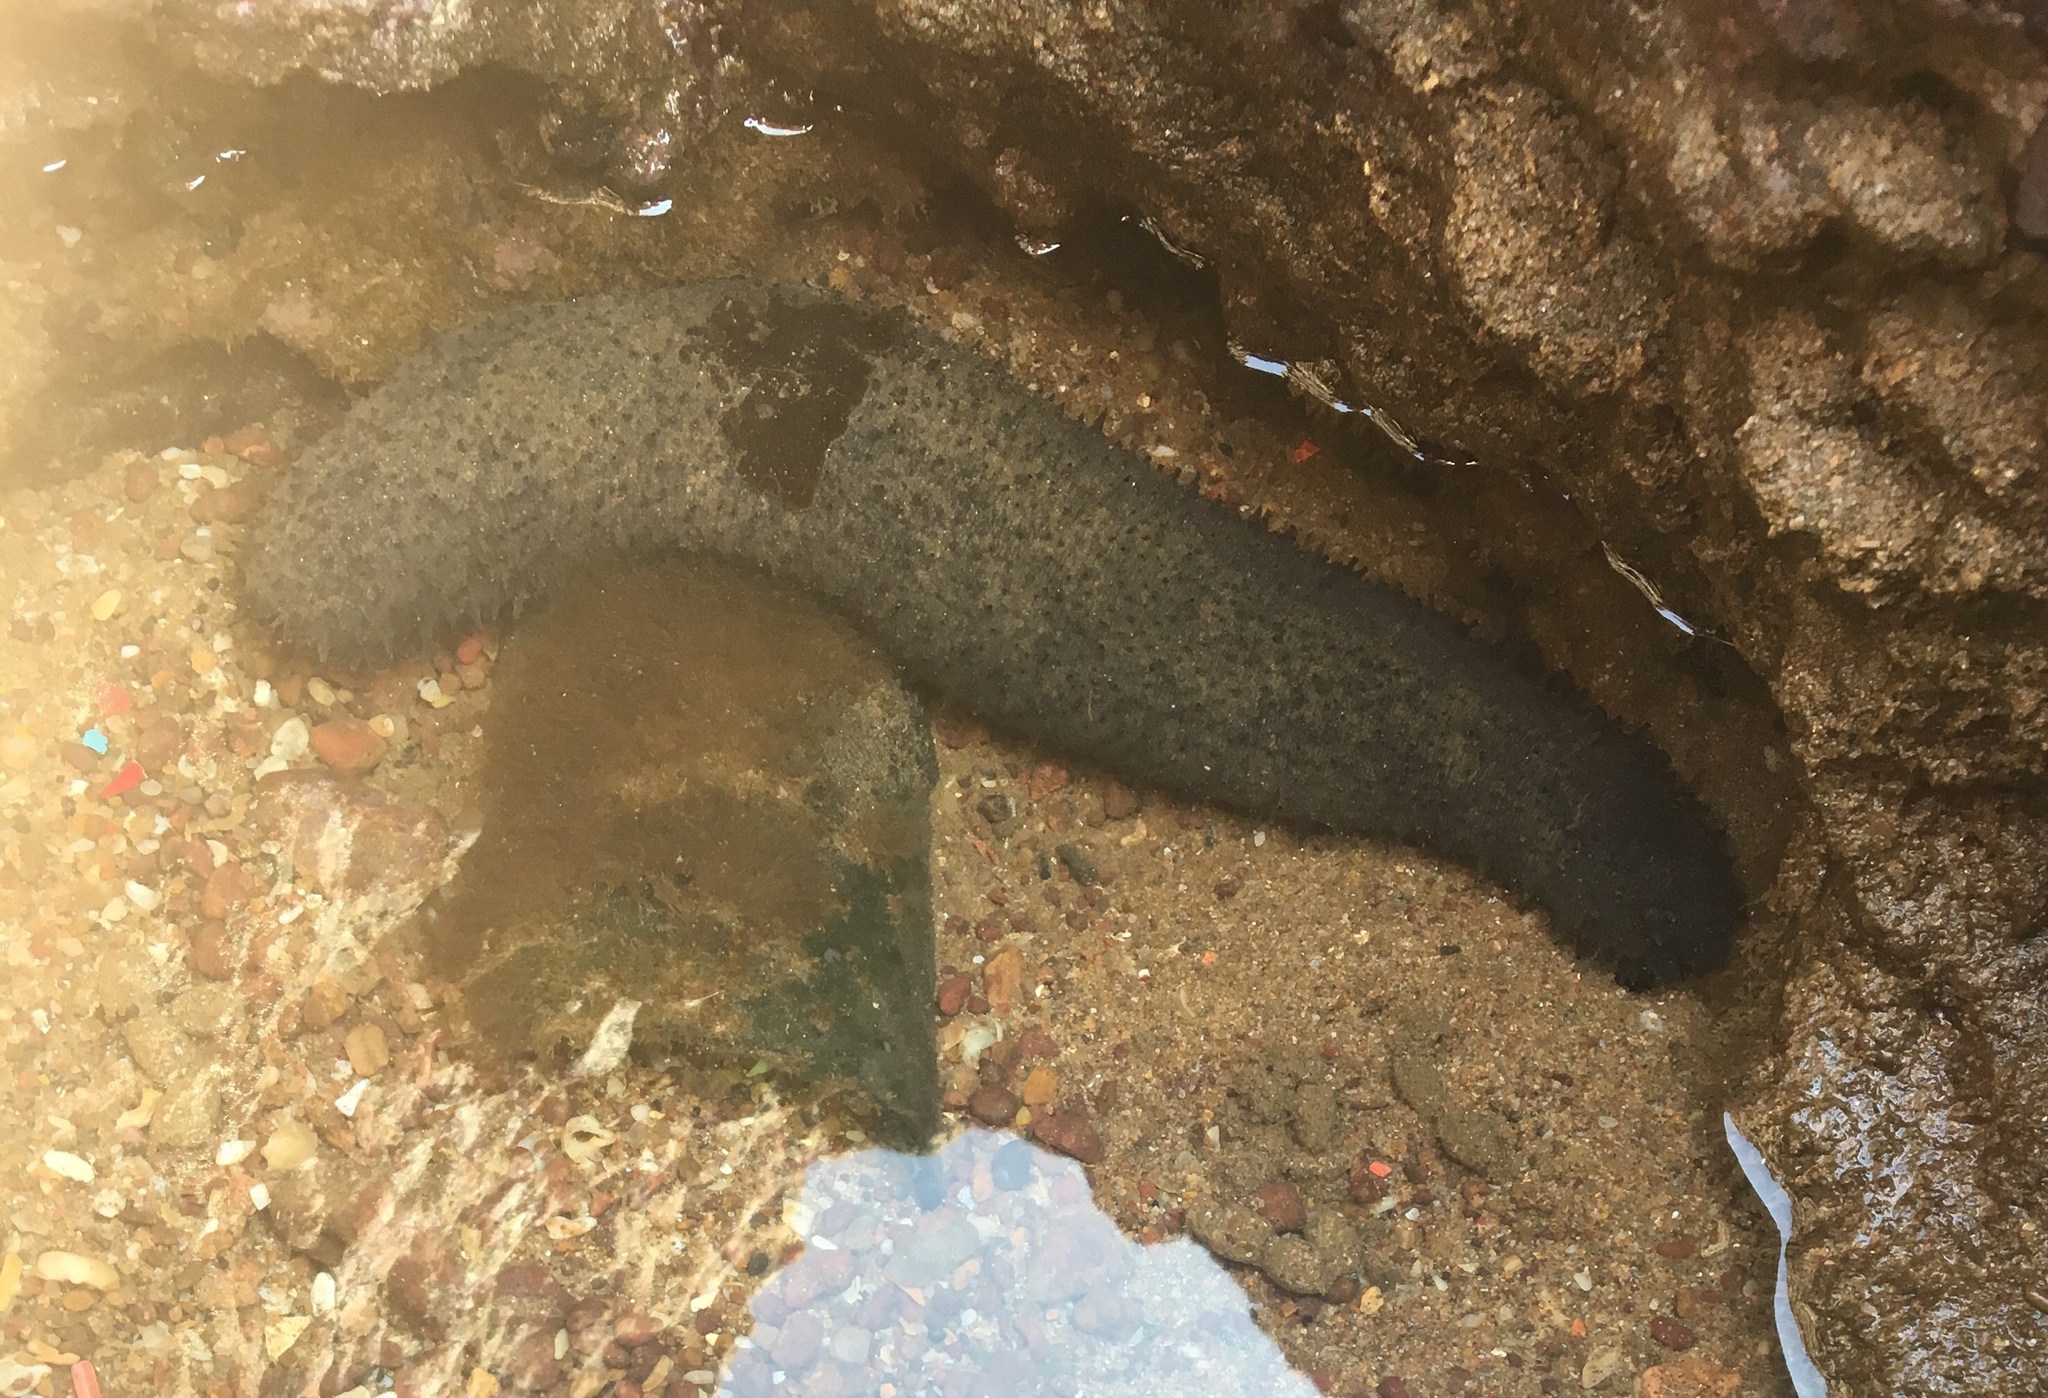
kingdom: Animalia
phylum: Echinodermata
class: Holothuroidea
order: Holothuriida
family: Holothuriidae
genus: Holothuria
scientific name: Holothuria leucospilota
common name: White thread fish
